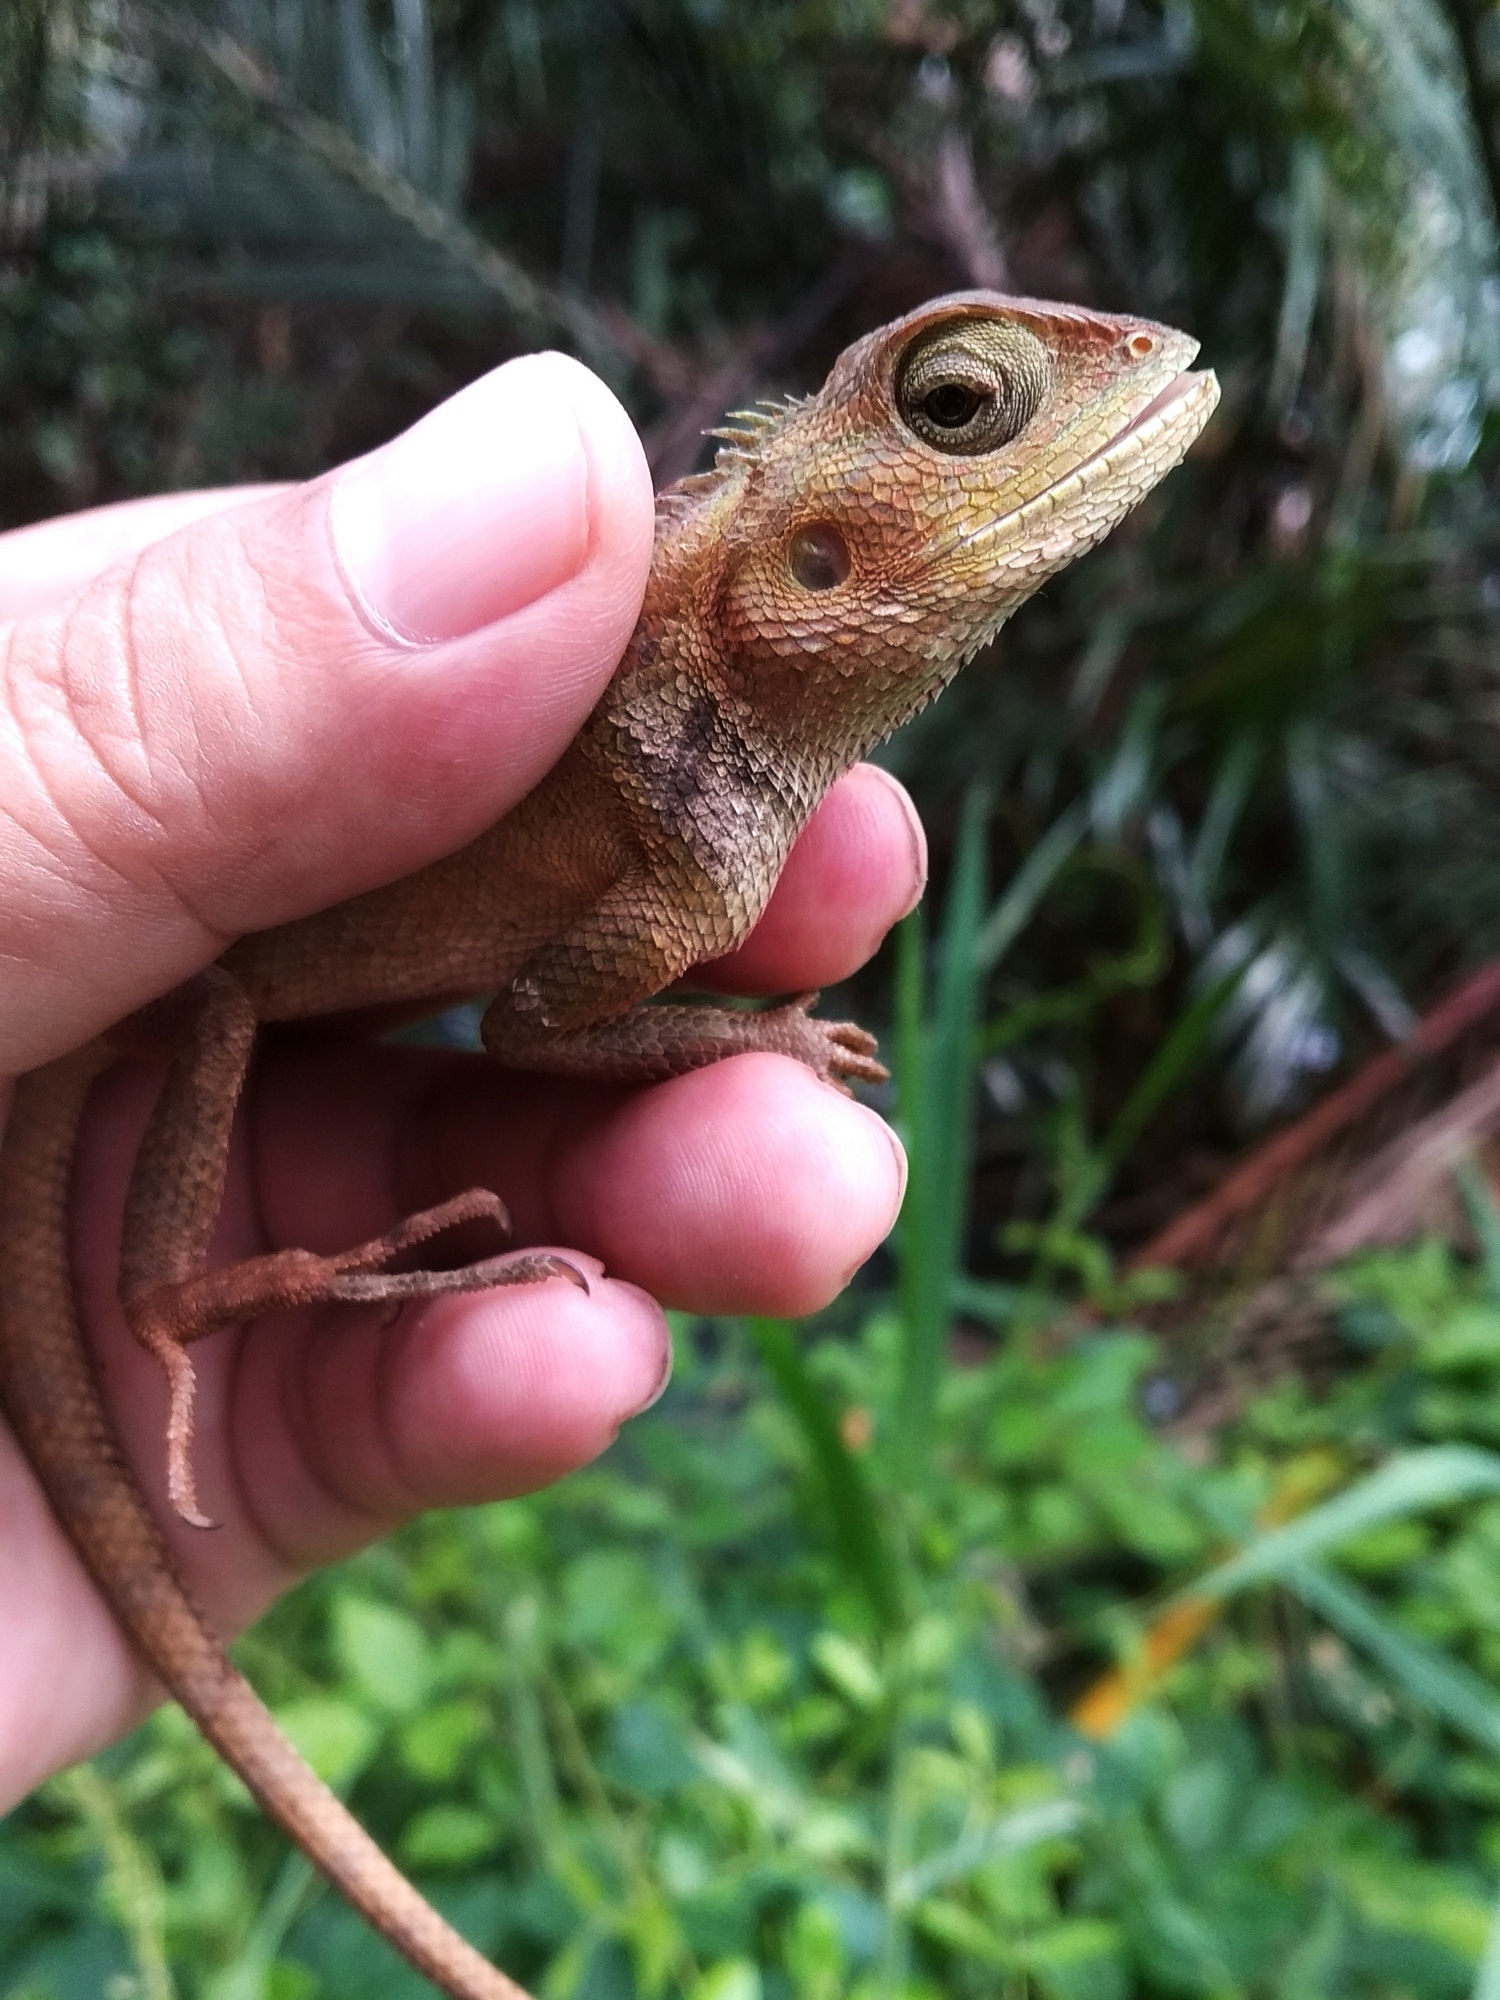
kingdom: Animalia
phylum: Chordata
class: Squamata
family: Agamidae
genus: Calotes
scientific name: Calotes versicolor
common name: Oriental garden lizard
